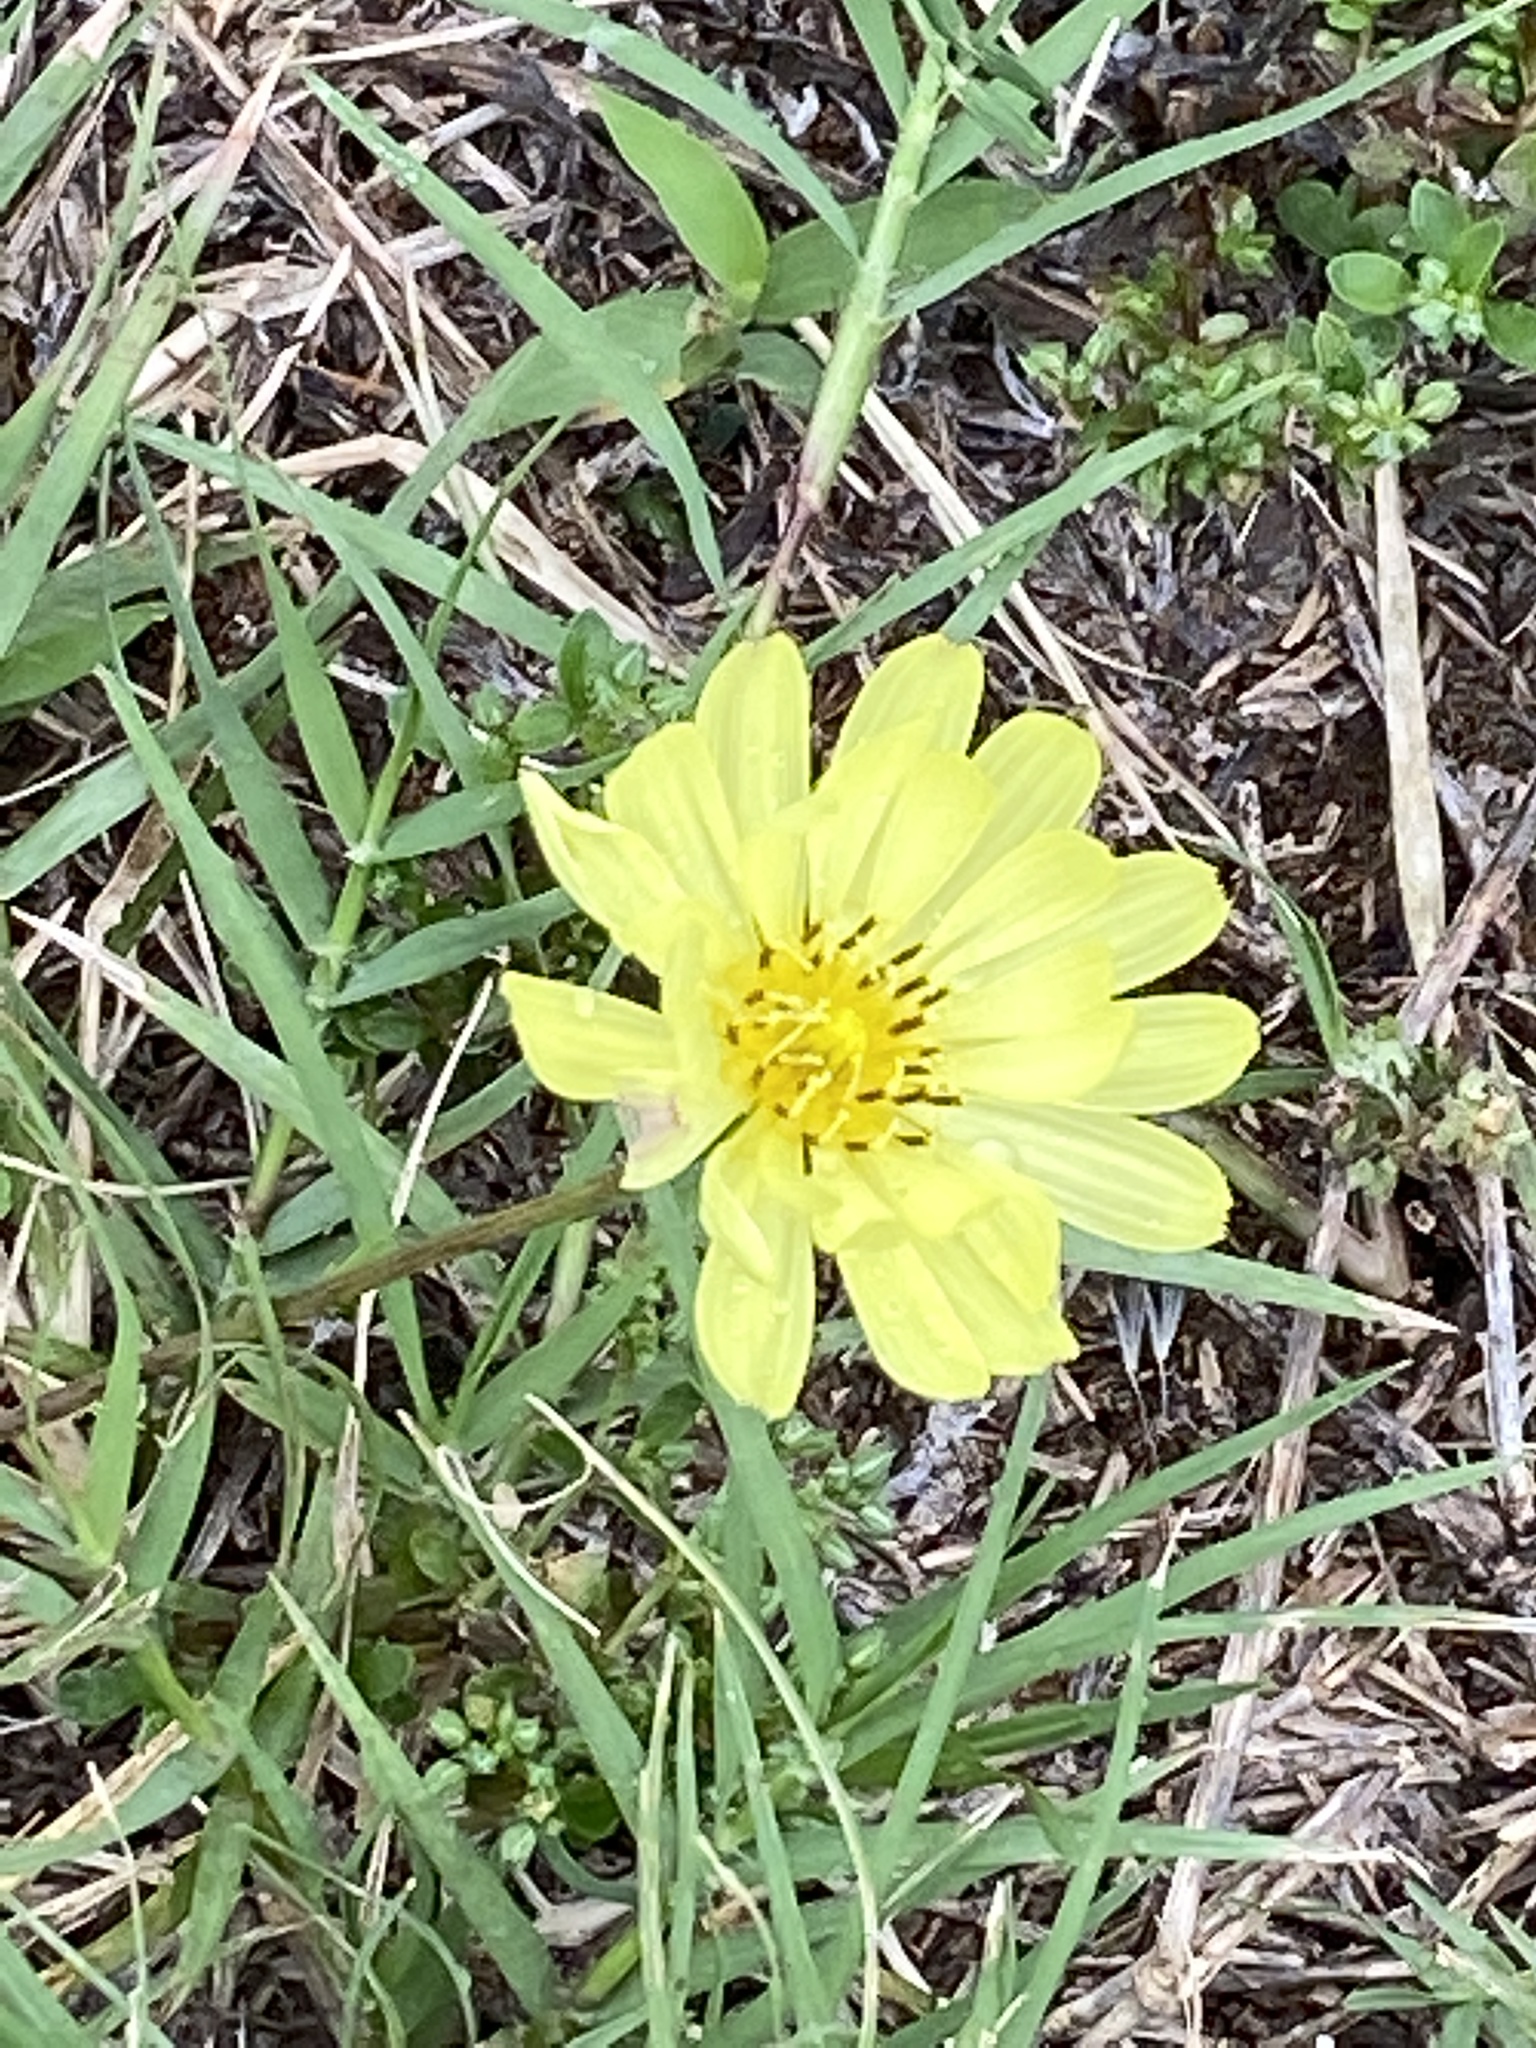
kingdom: Plantae
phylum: Tracheophyta
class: Magnoliopsida
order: Asterales
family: Asteraceae
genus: Pyrrhopappus
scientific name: Pyrrhopappus pauciflorus
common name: Texas false dandelion
